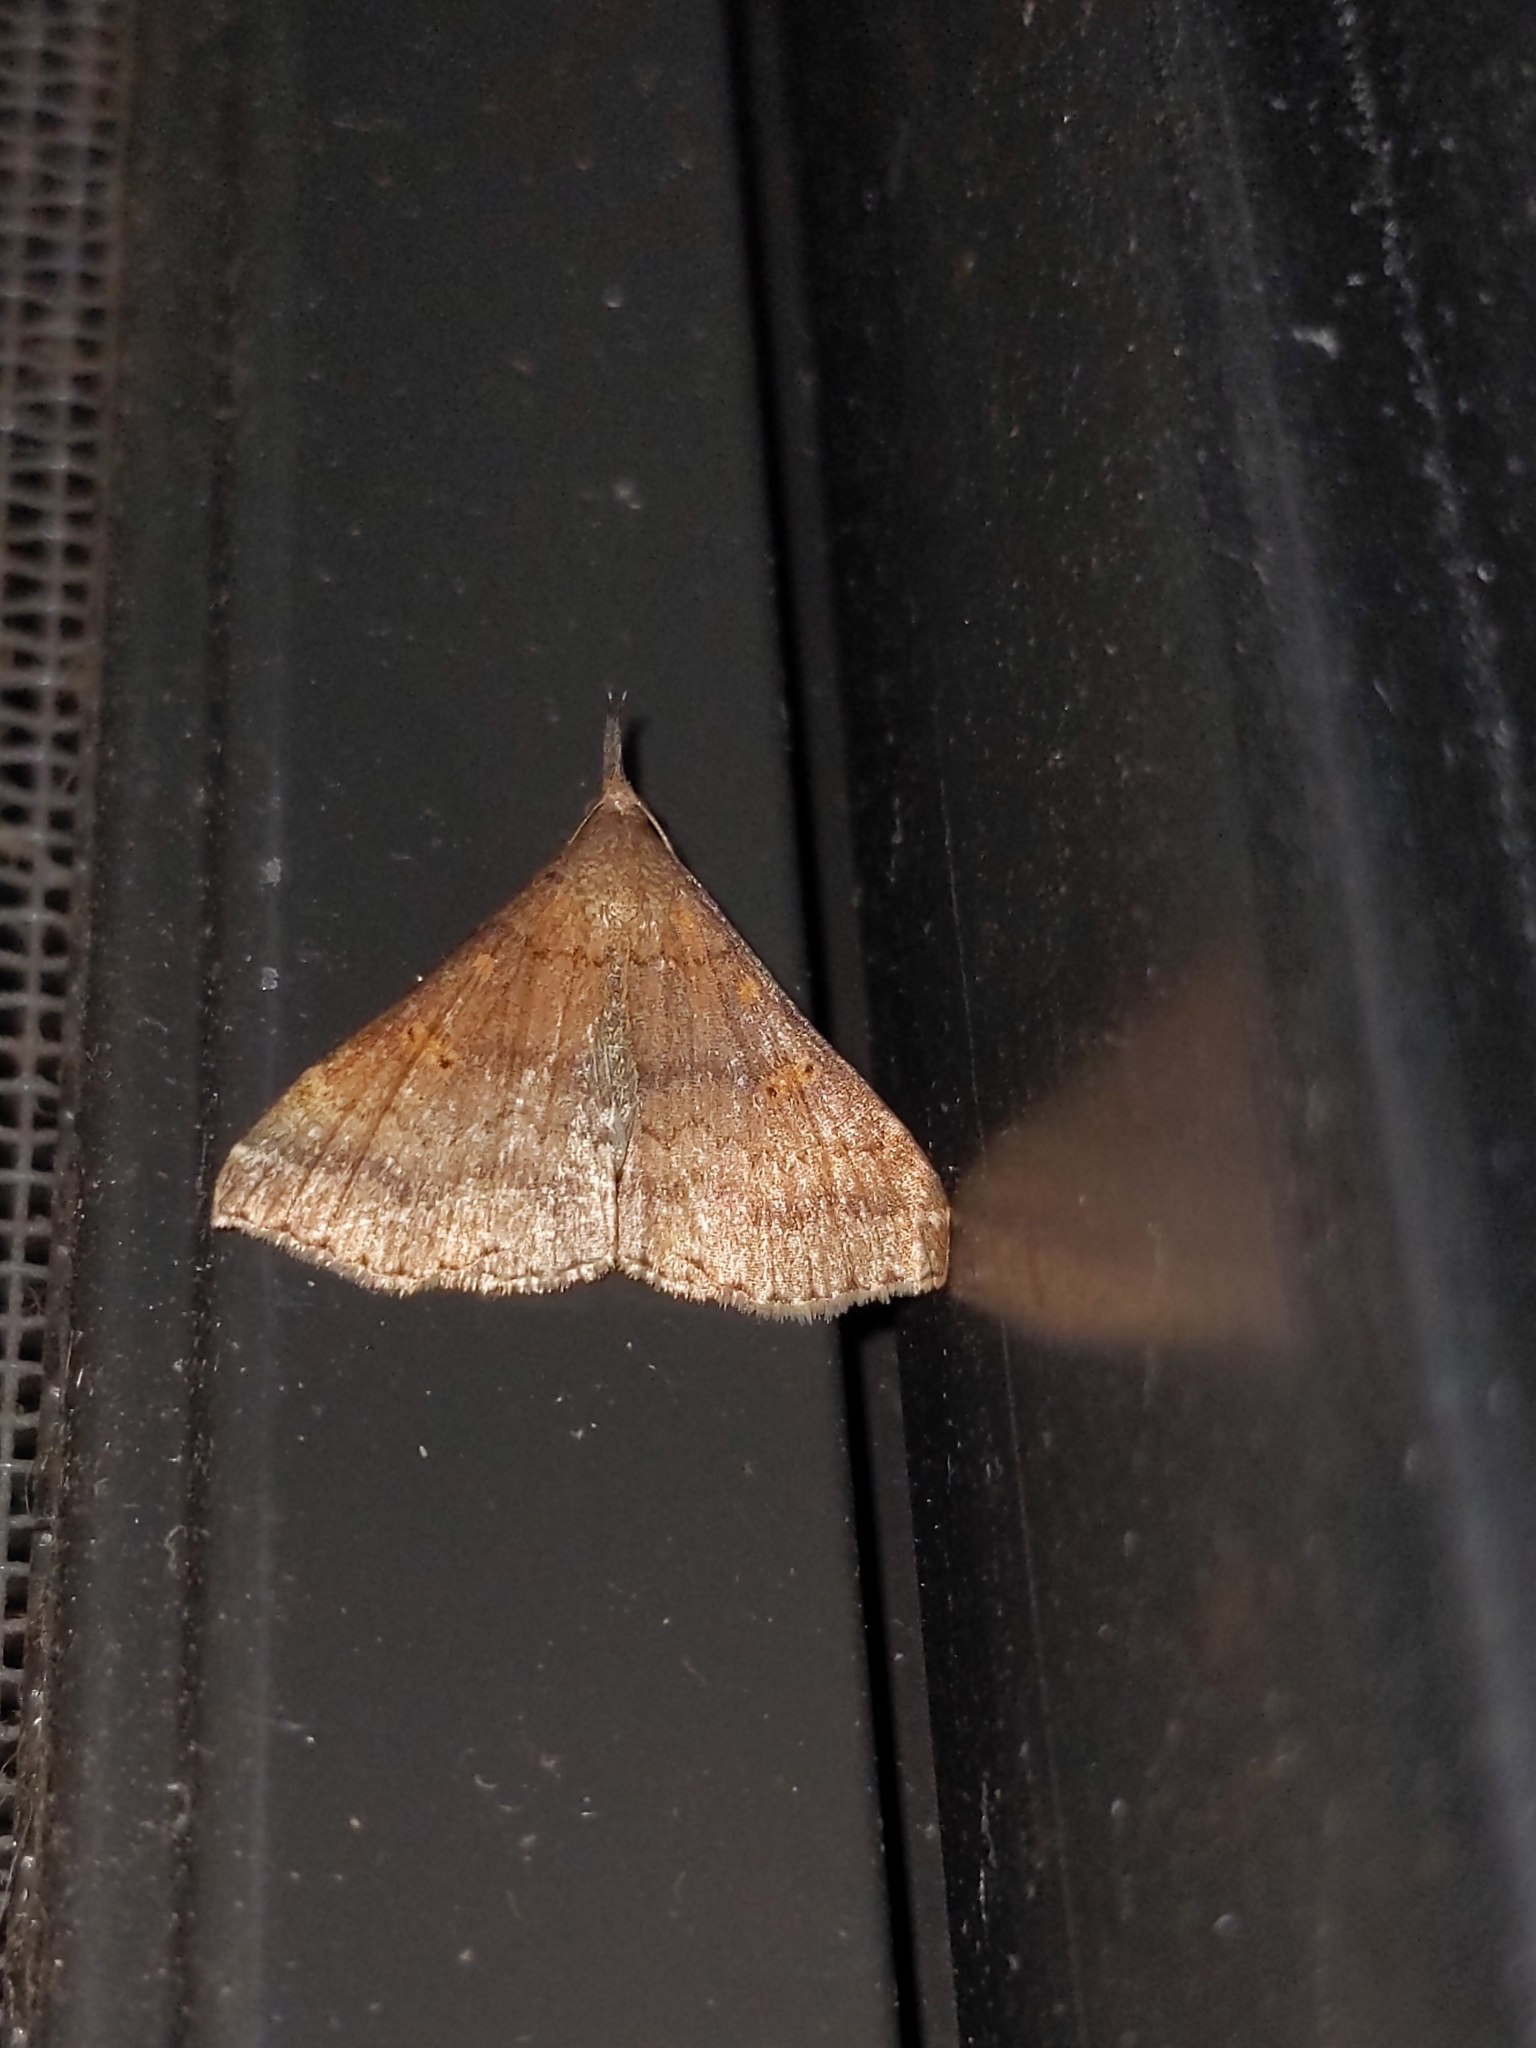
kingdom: Animalia
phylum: Arthropoda
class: Insecta
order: Lepidoptera
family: Erebidae
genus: Renia
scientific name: Renia discoloralis
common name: Discolored renia moth
